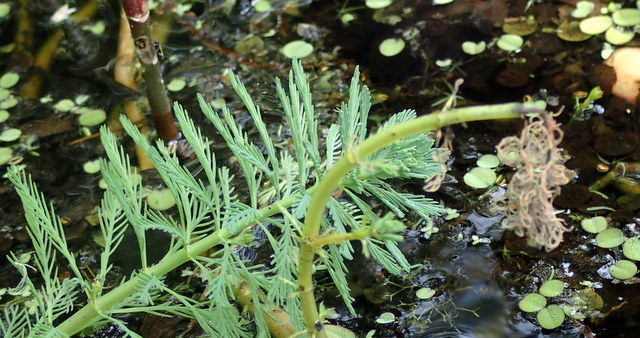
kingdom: Plantae
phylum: Tracheophyta
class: Magnoliopsida
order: Saxifragales
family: Haloragaceae
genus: Myriophyllum
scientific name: Myriophyllum aquaticum
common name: Parrot's feather
